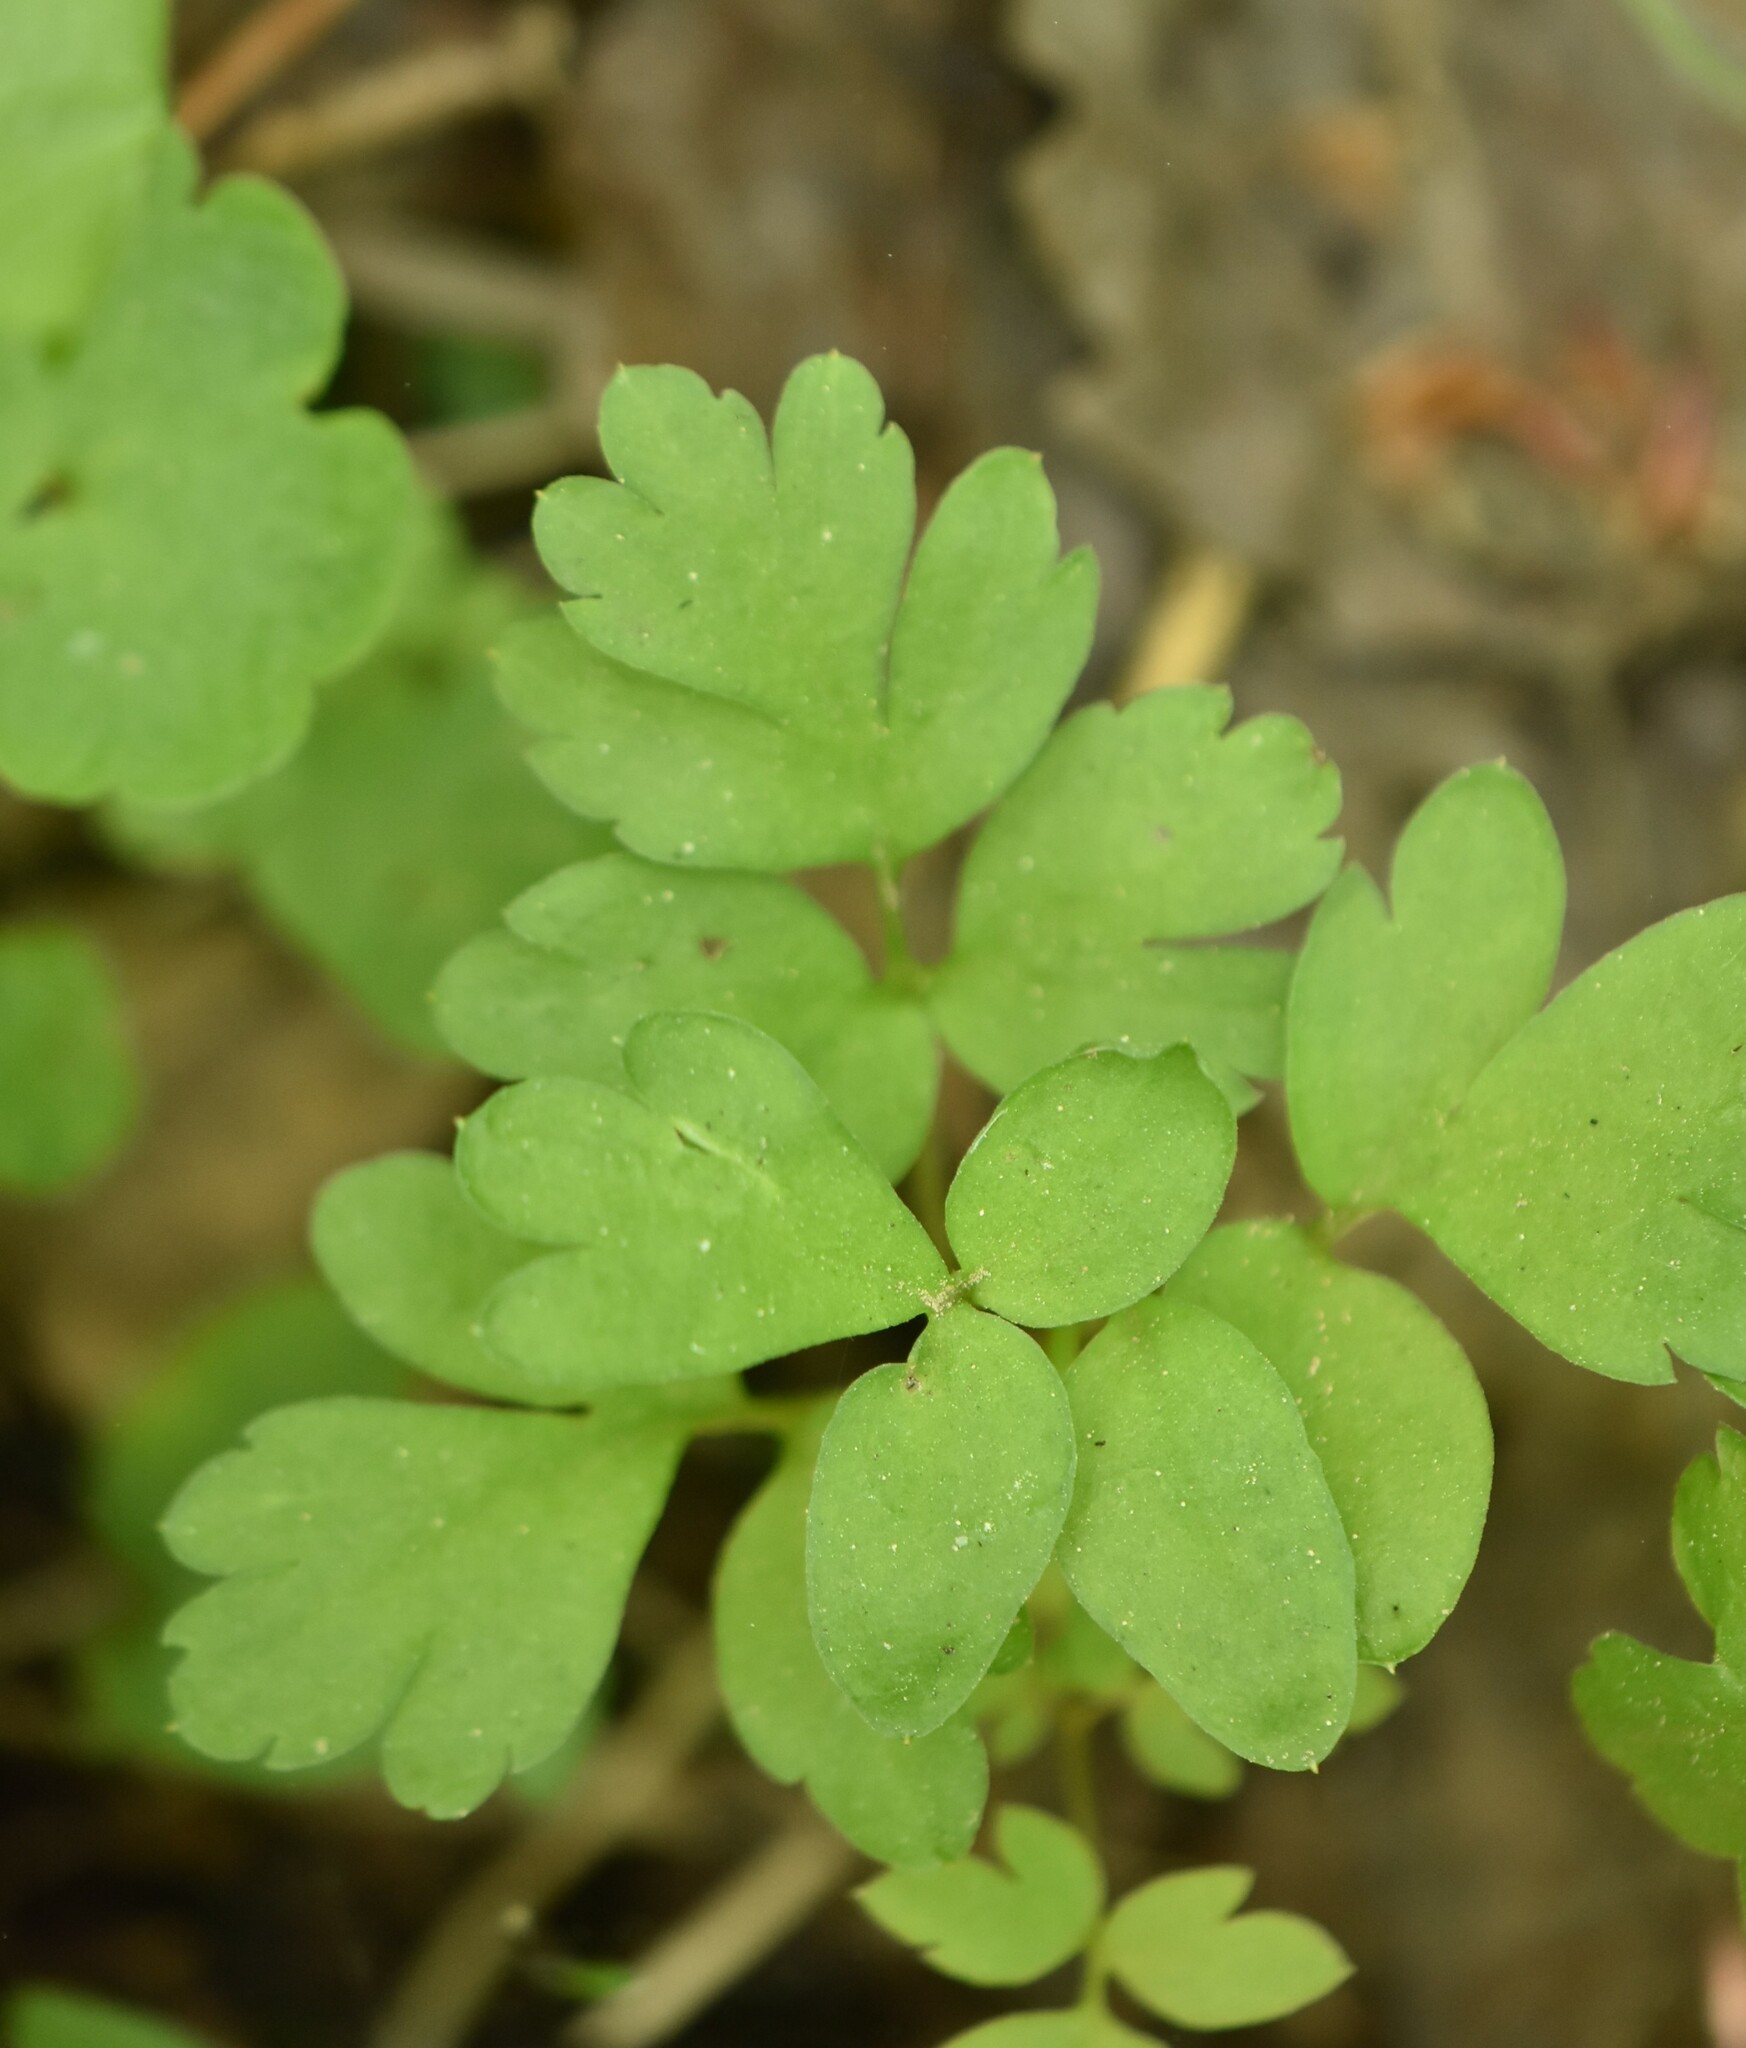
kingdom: Plantae
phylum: Tracheophyta
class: Magnoliopsida
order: Dipsacales
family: Viburnaceae
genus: Adoxa
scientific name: Adoxa moschatellina
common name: Moschatel
